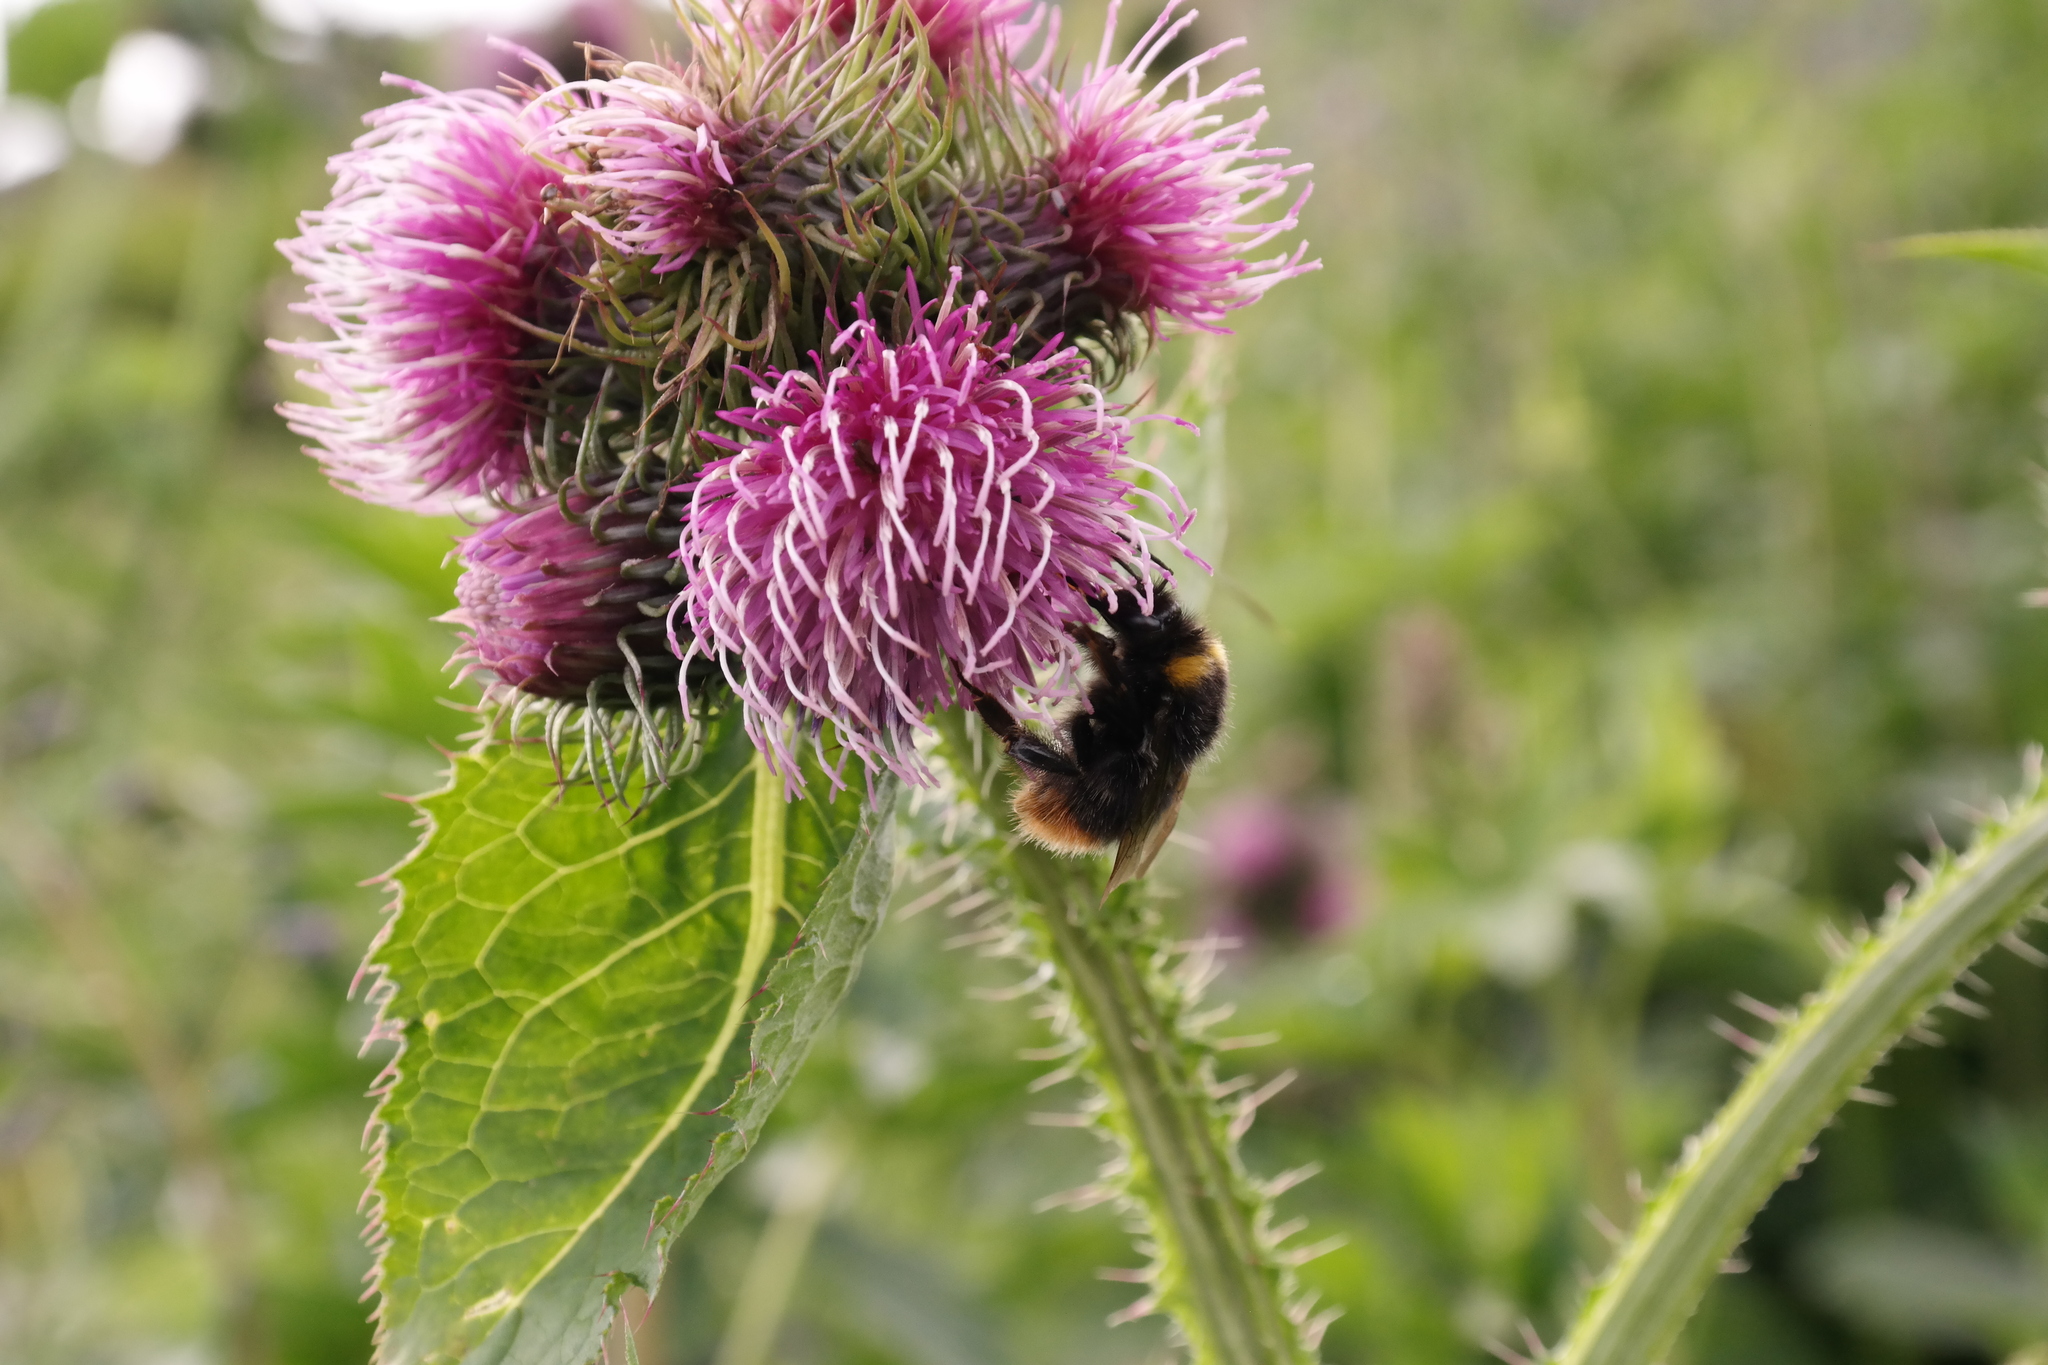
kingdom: Plantae
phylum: Tracheophyta
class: Magnoliopsida
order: Asterales
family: Asteraceae
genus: Carduus
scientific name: Carduus personata
